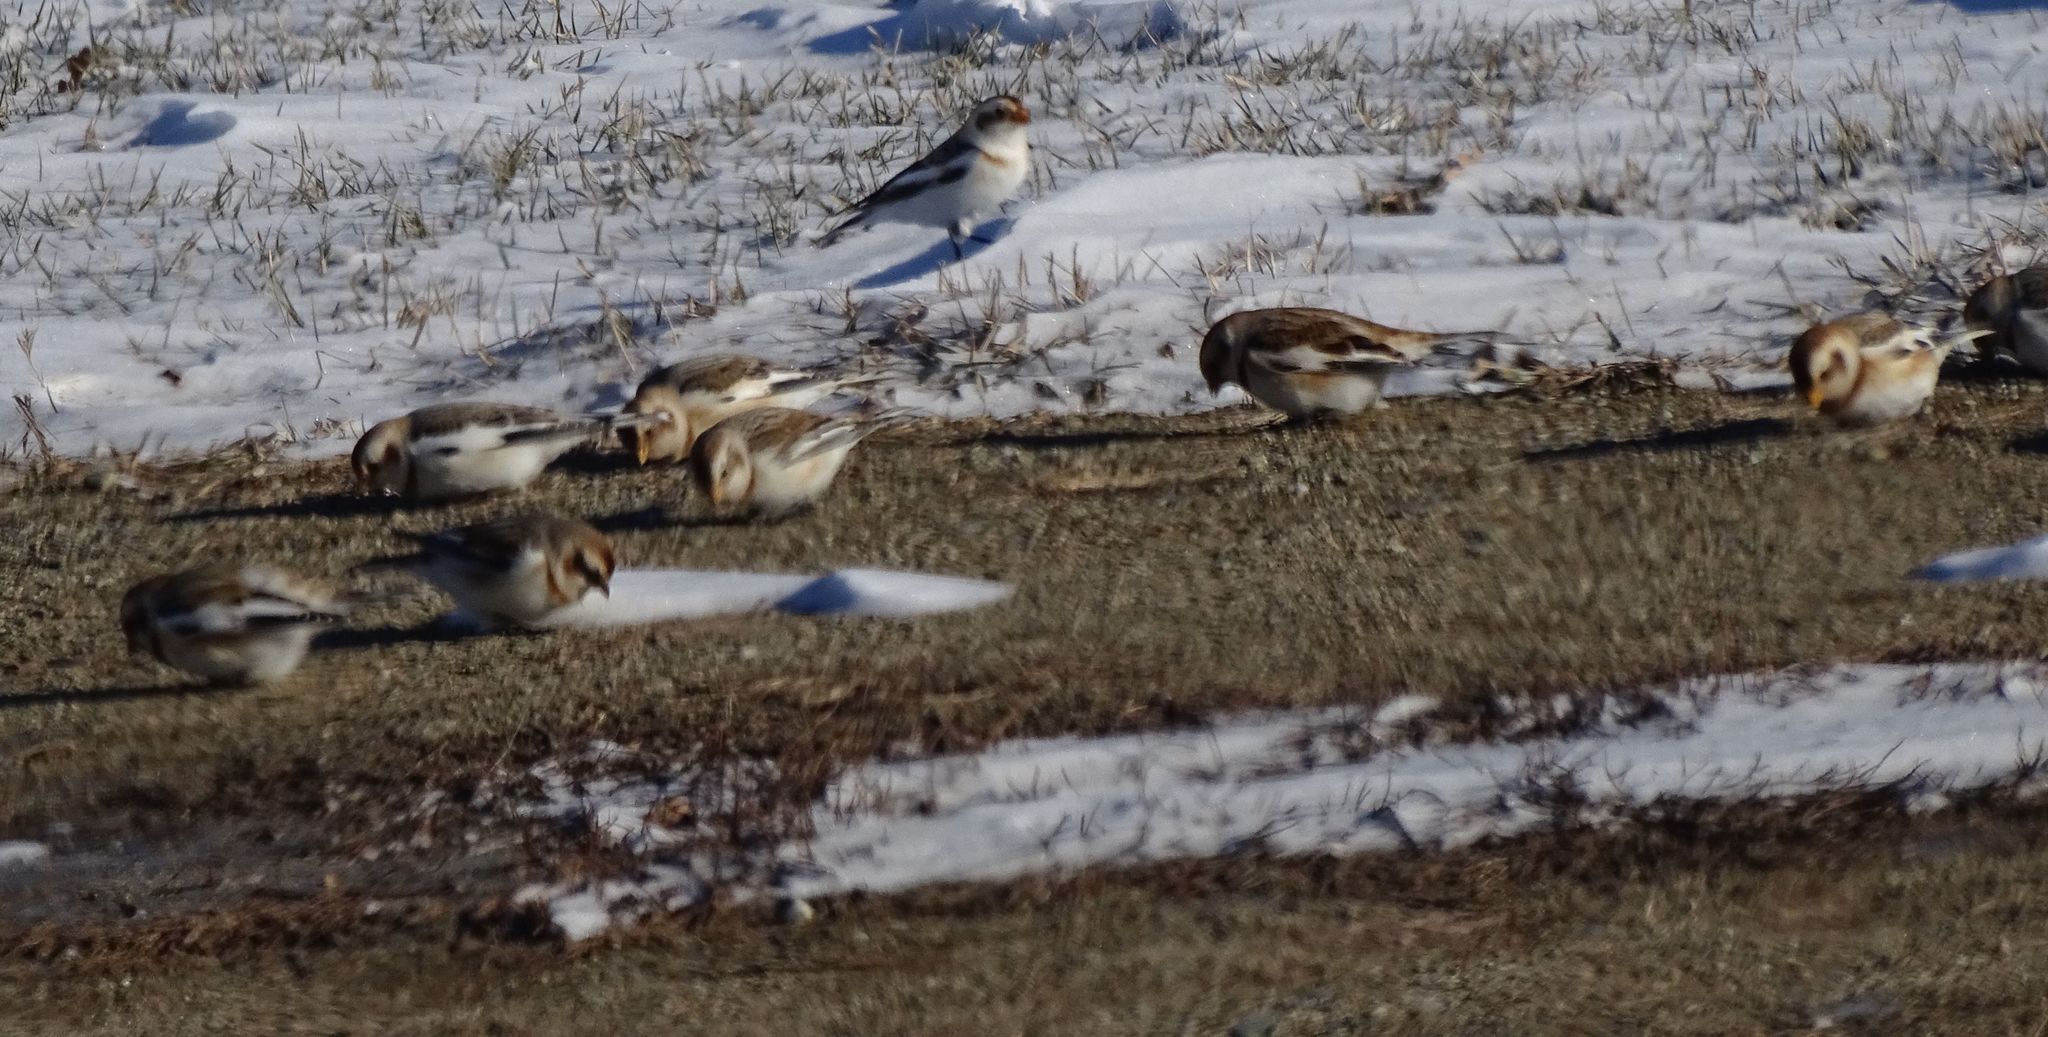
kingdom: Animalia
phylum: Chordata
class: Aves
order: Passeriformes
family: Calcariidae
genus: Plectrophenax
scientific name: Plectrophenax nivalis
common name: Snow bunting
